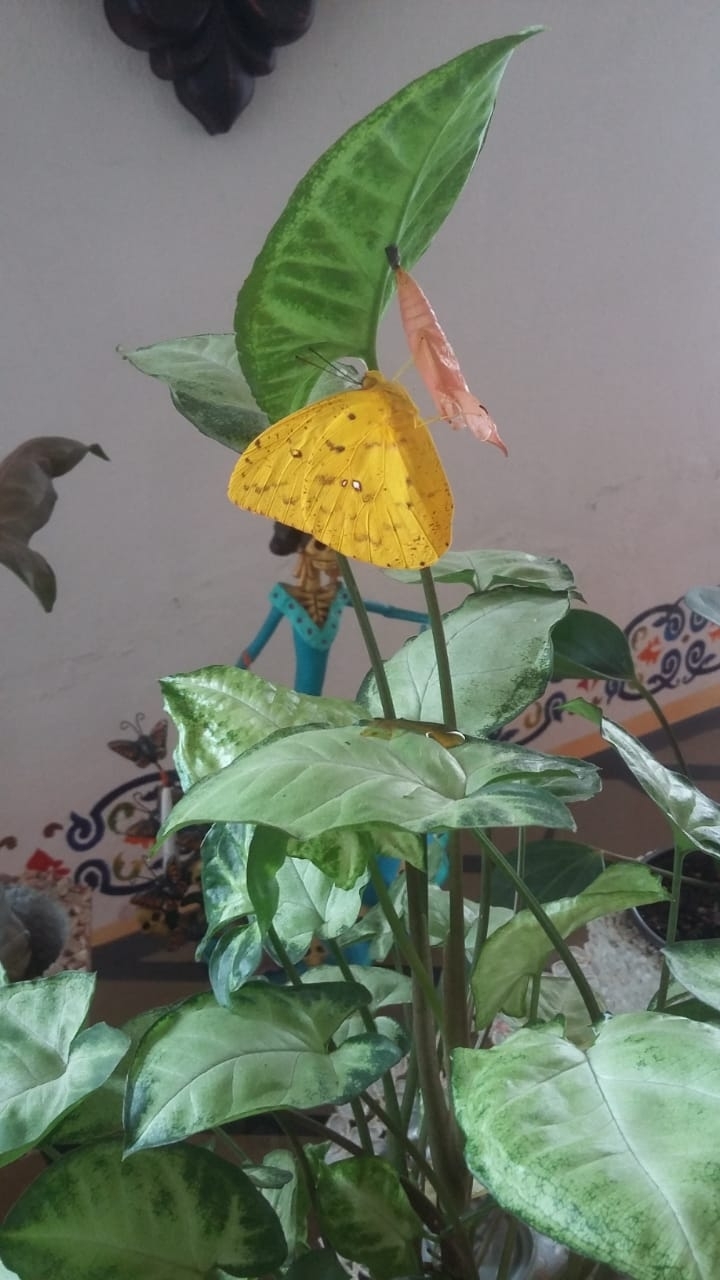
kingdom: Animalia
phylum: Arthropoda
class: Insecta
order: Lepidoptera
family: Pieridae
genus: Phoebis
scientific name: Phoebis philea
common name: Orange-barred giant sulphur
